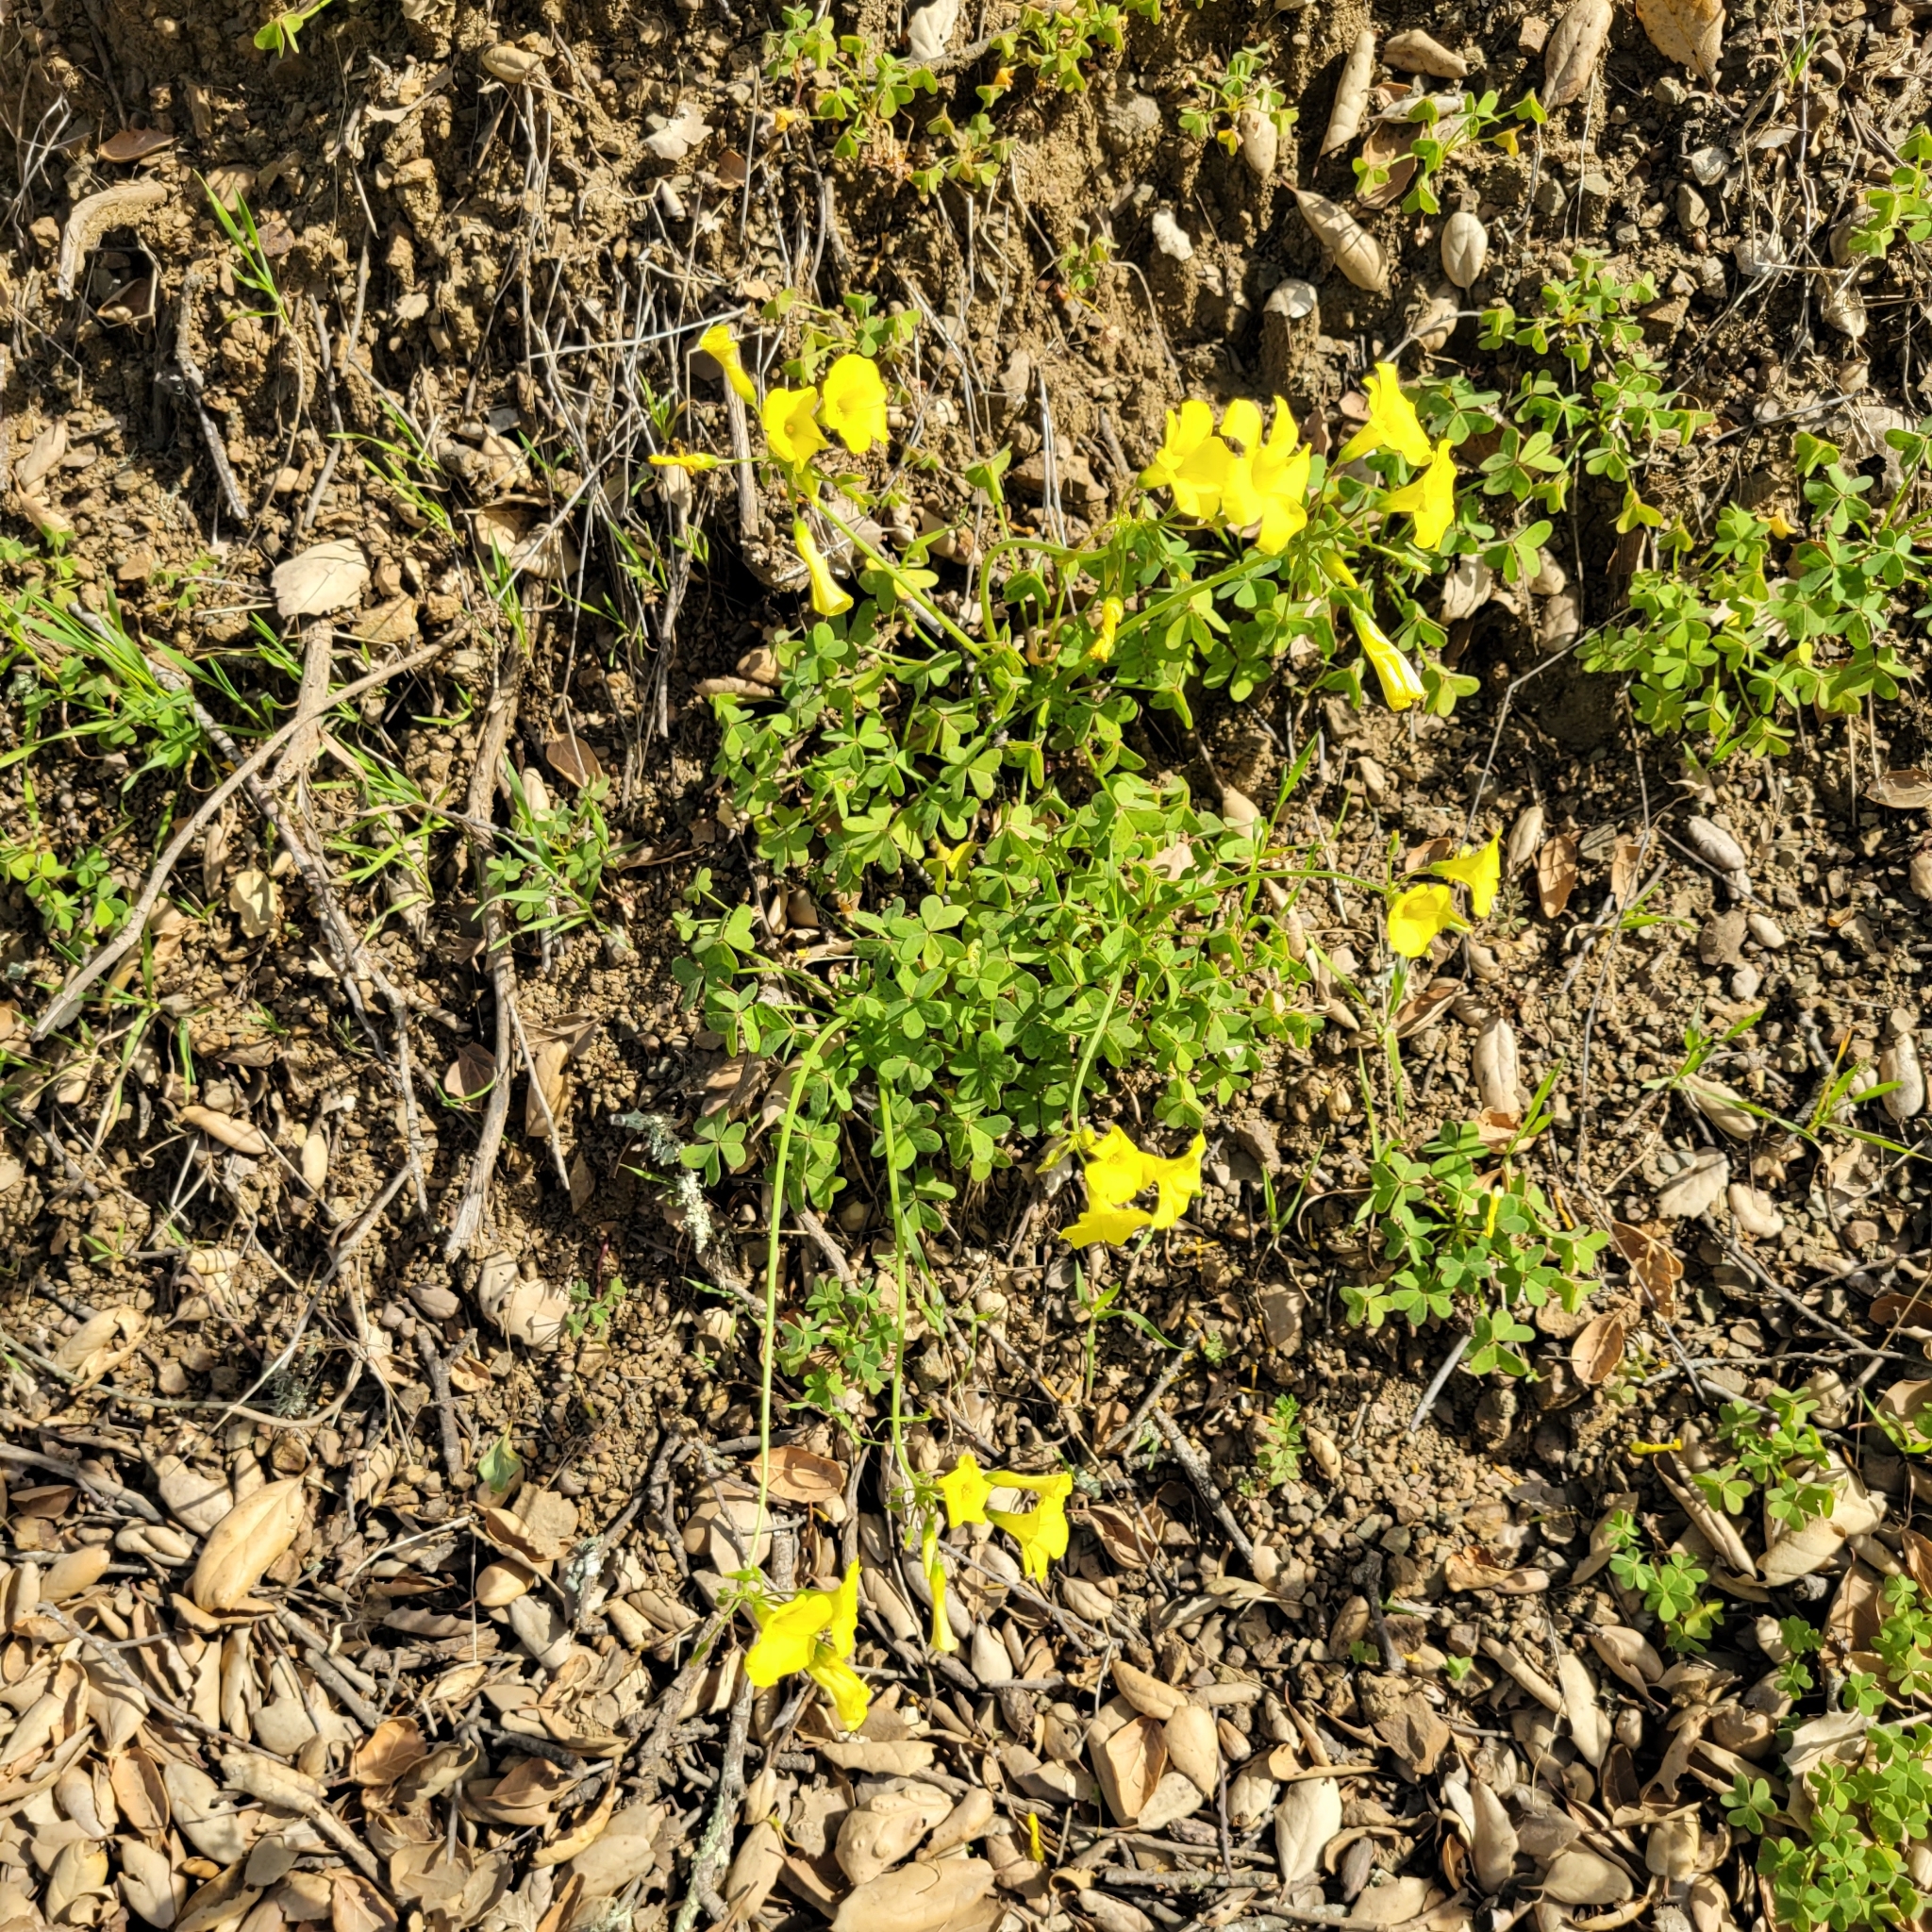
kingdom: Plantae
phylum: Tracheophyta
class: Magnoliopsida
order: Oxalidales
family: Oxalidaceae
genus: Oxalis
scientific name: Oxalis pes-caprae
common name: Bermuda-buttercup
